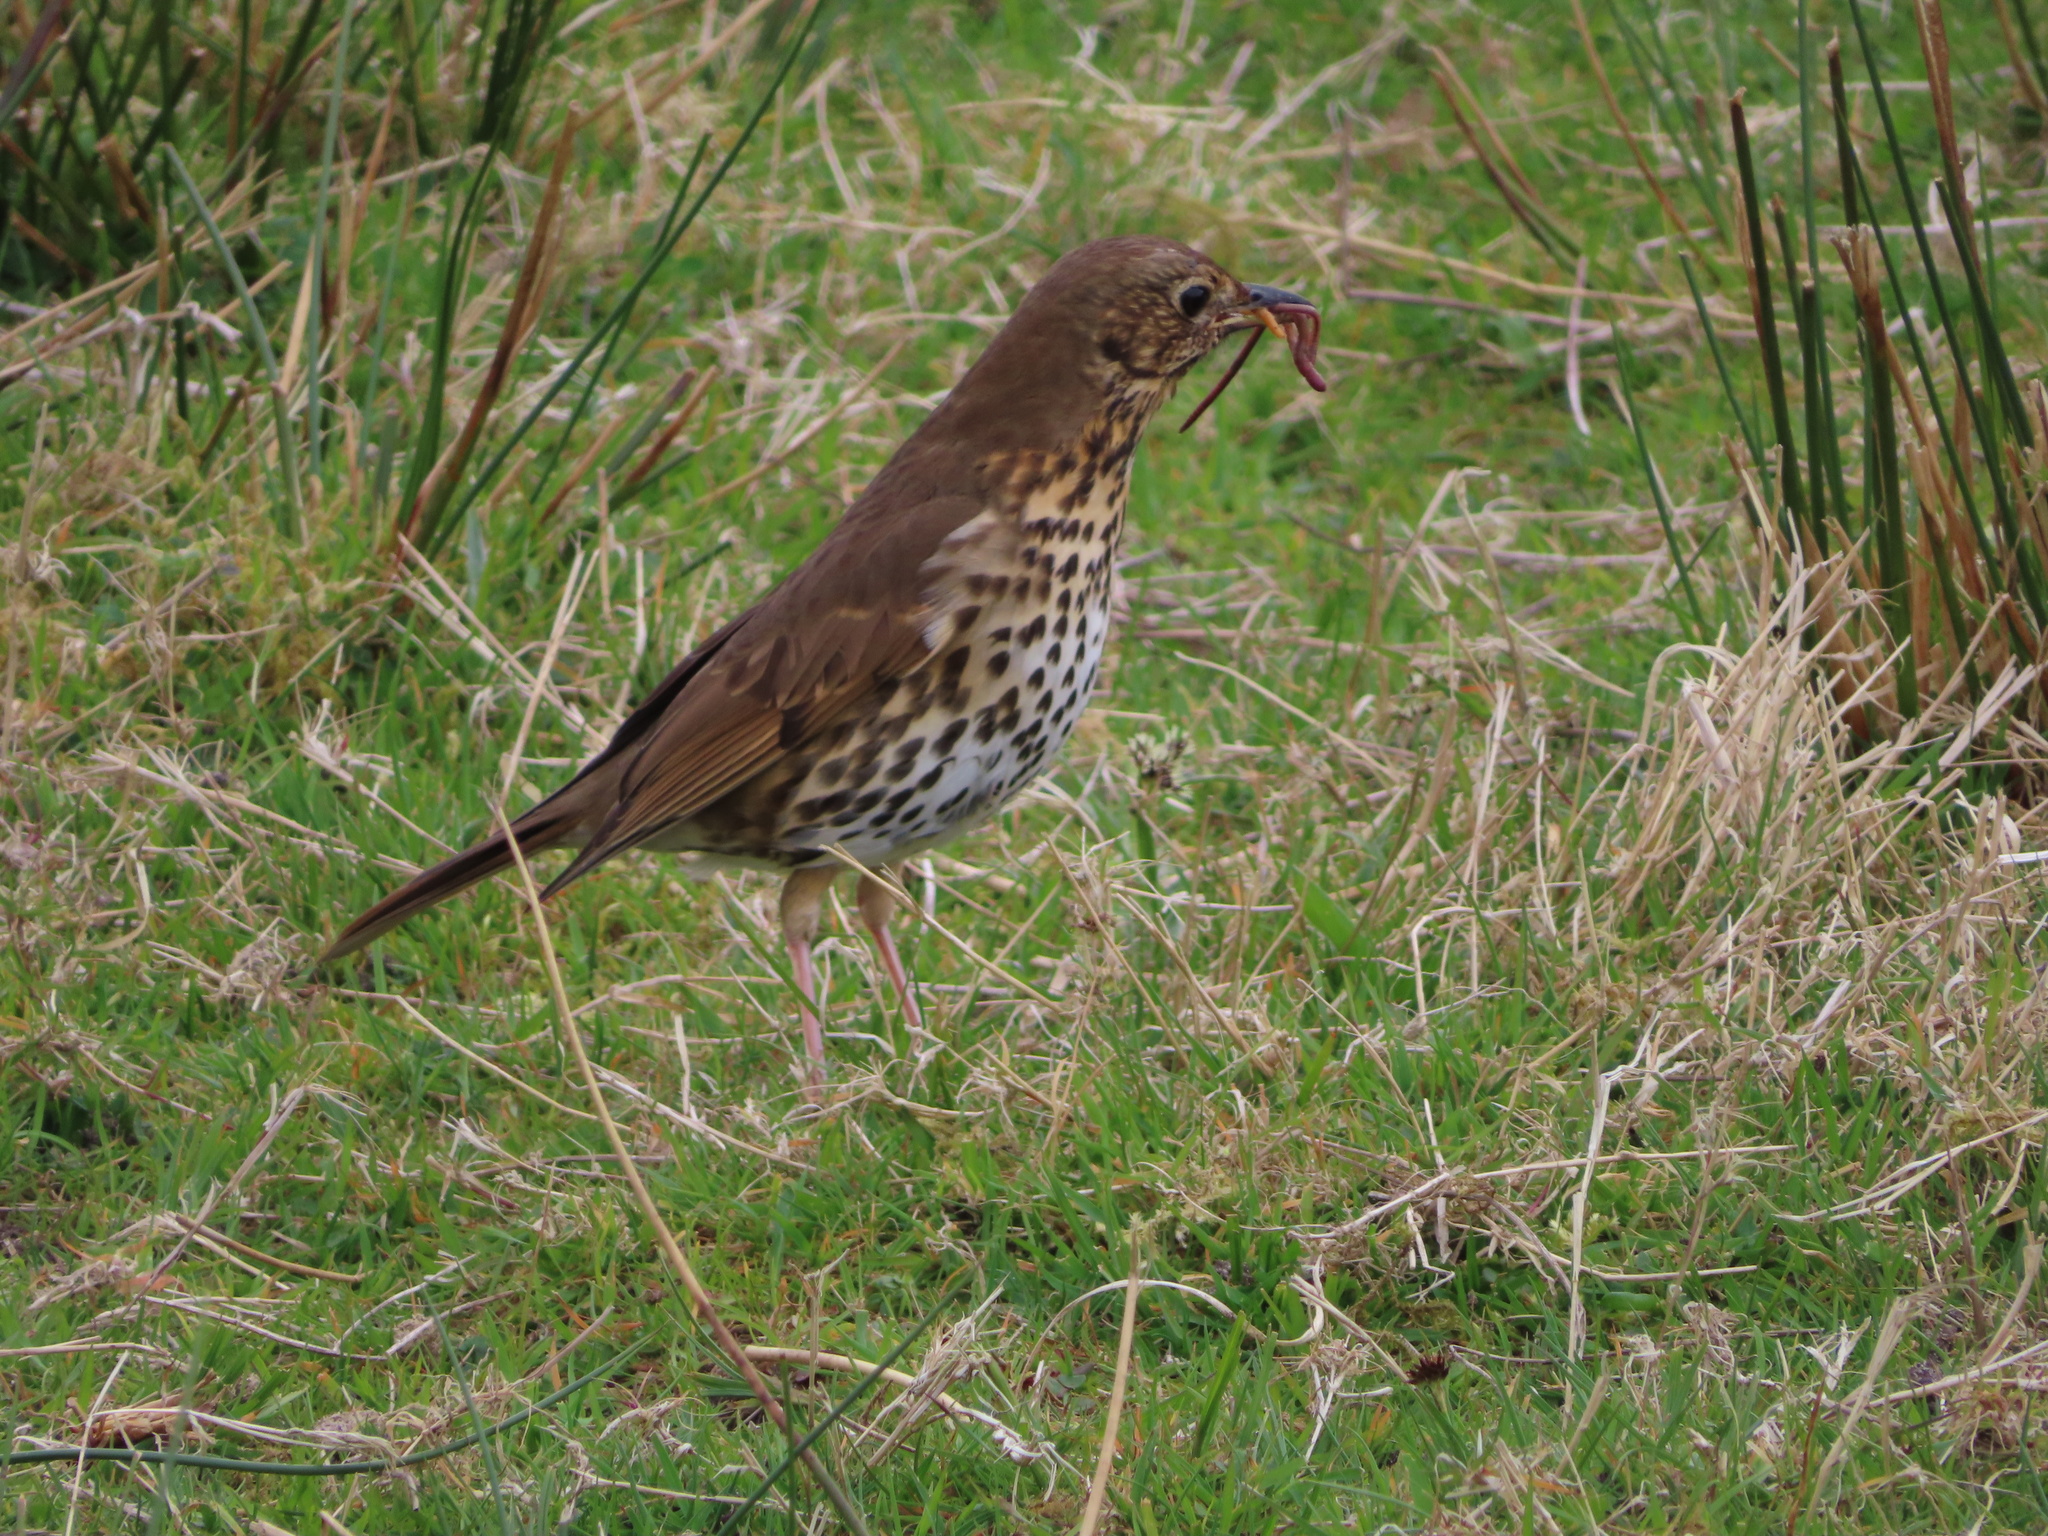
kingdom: Animalia
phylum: Chordata
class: Aves
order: Passeriformes
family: Turdidae
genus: Turdus
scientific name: Turdus philomelos
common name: Song thrush
